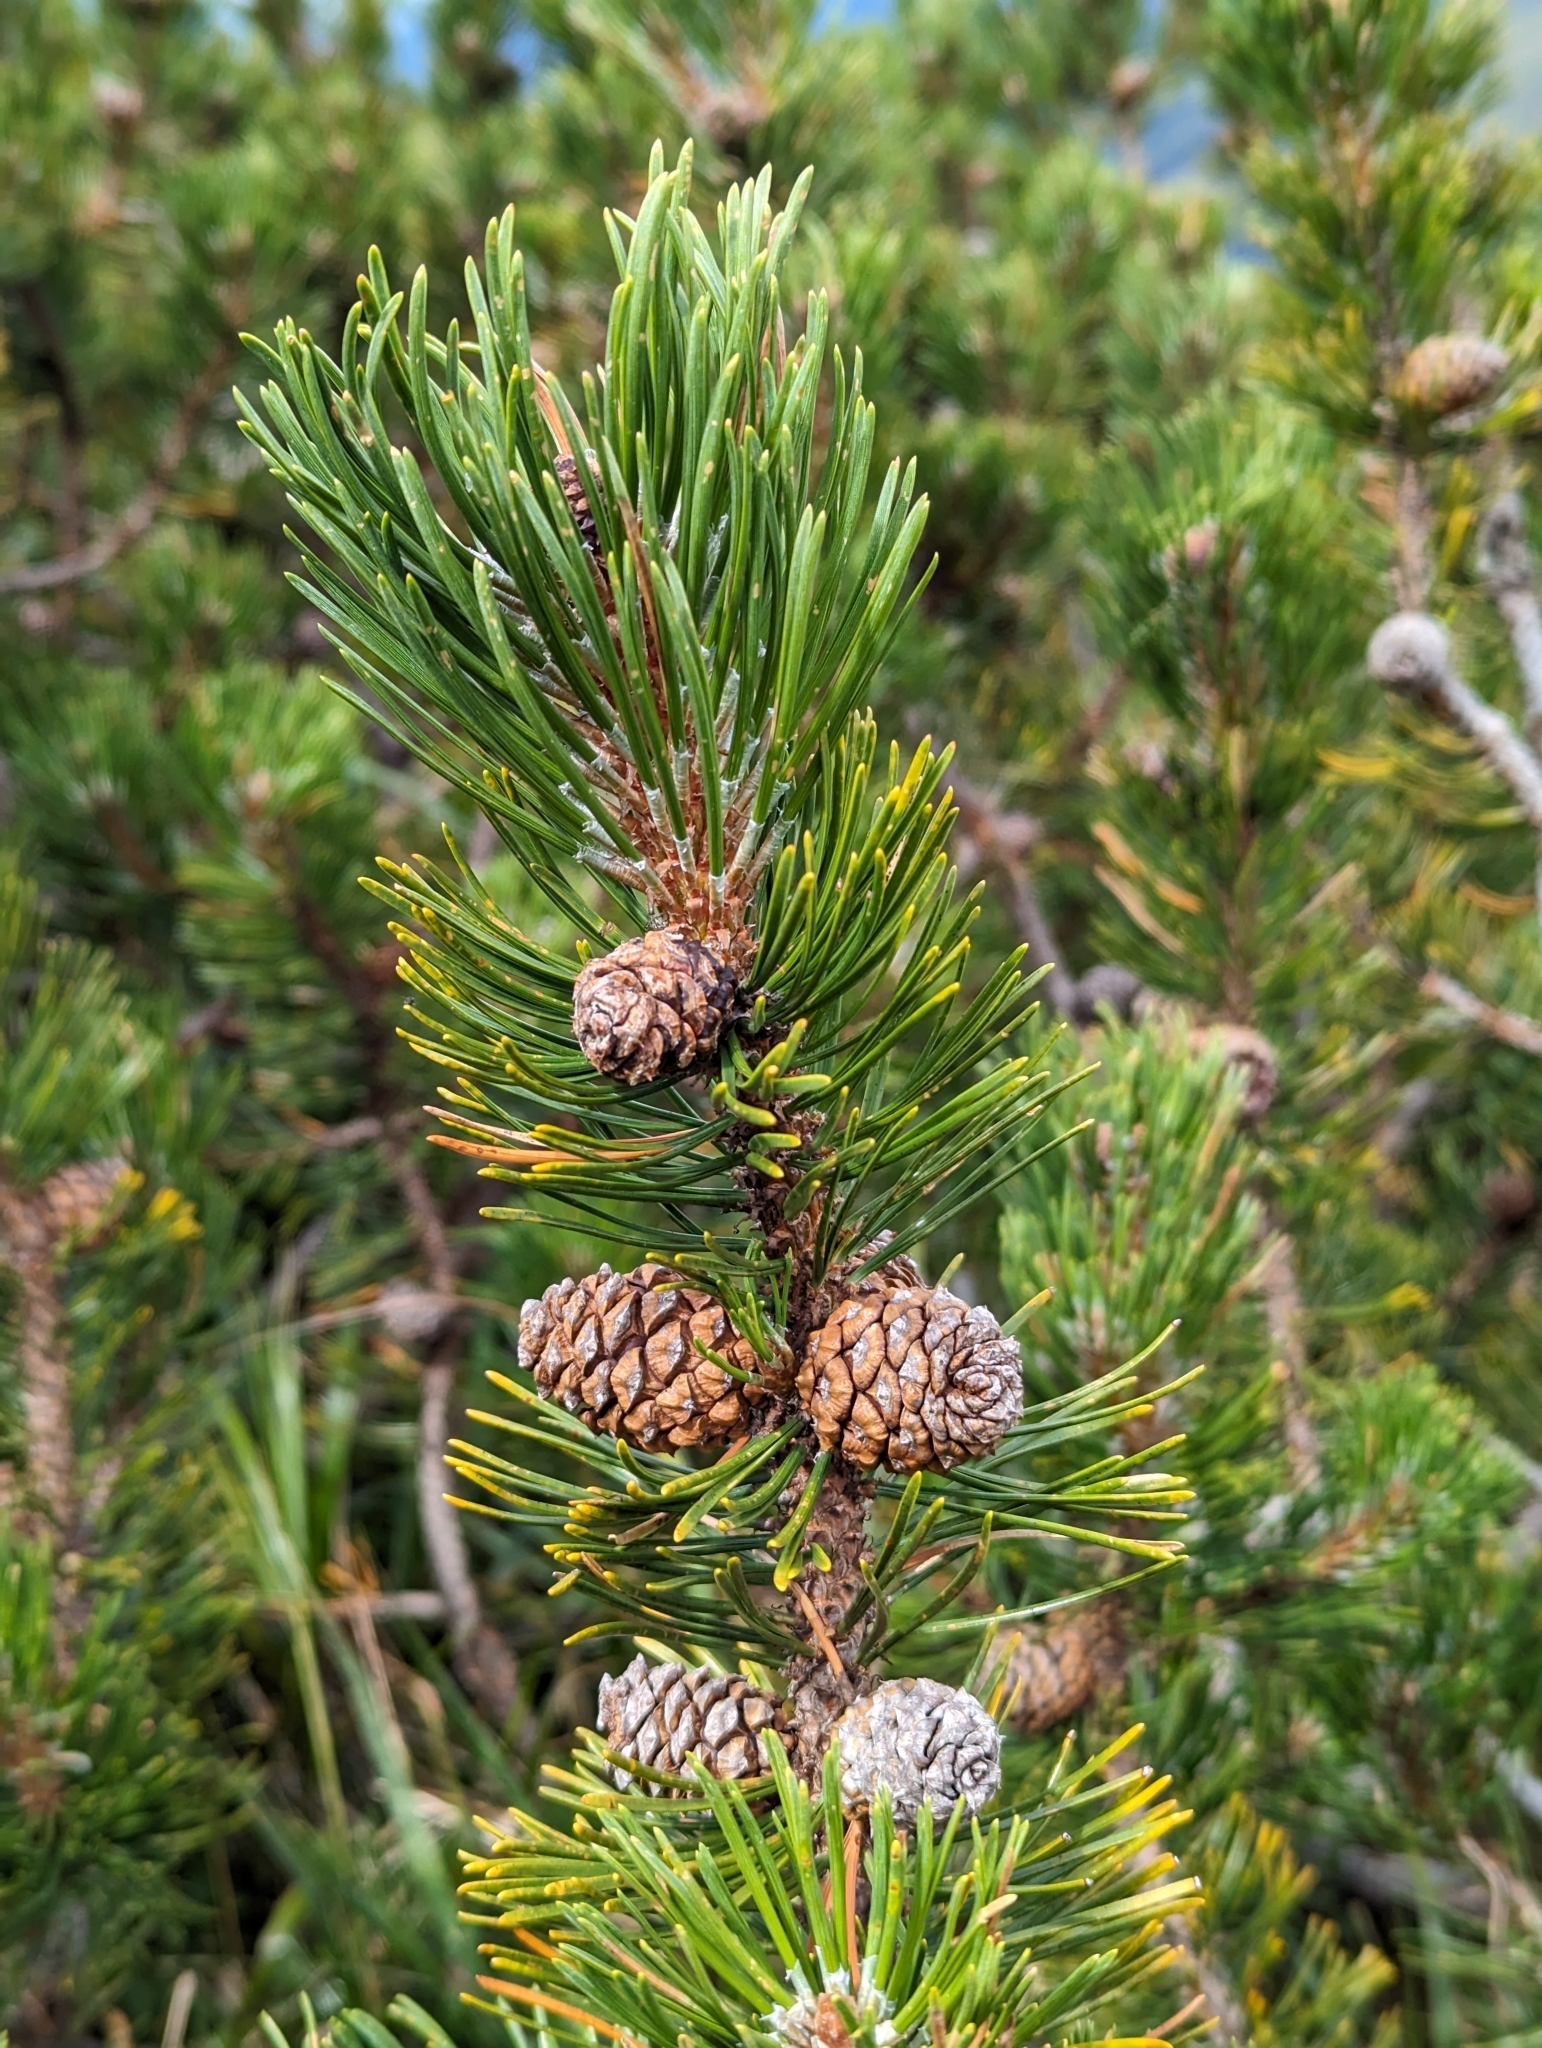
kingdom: Plantae
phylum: Tracheophyta
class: Pinopsida
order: Pinales
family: Pinaceae
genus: Pinus
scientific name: Pinus mugo
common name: Mugo pine
